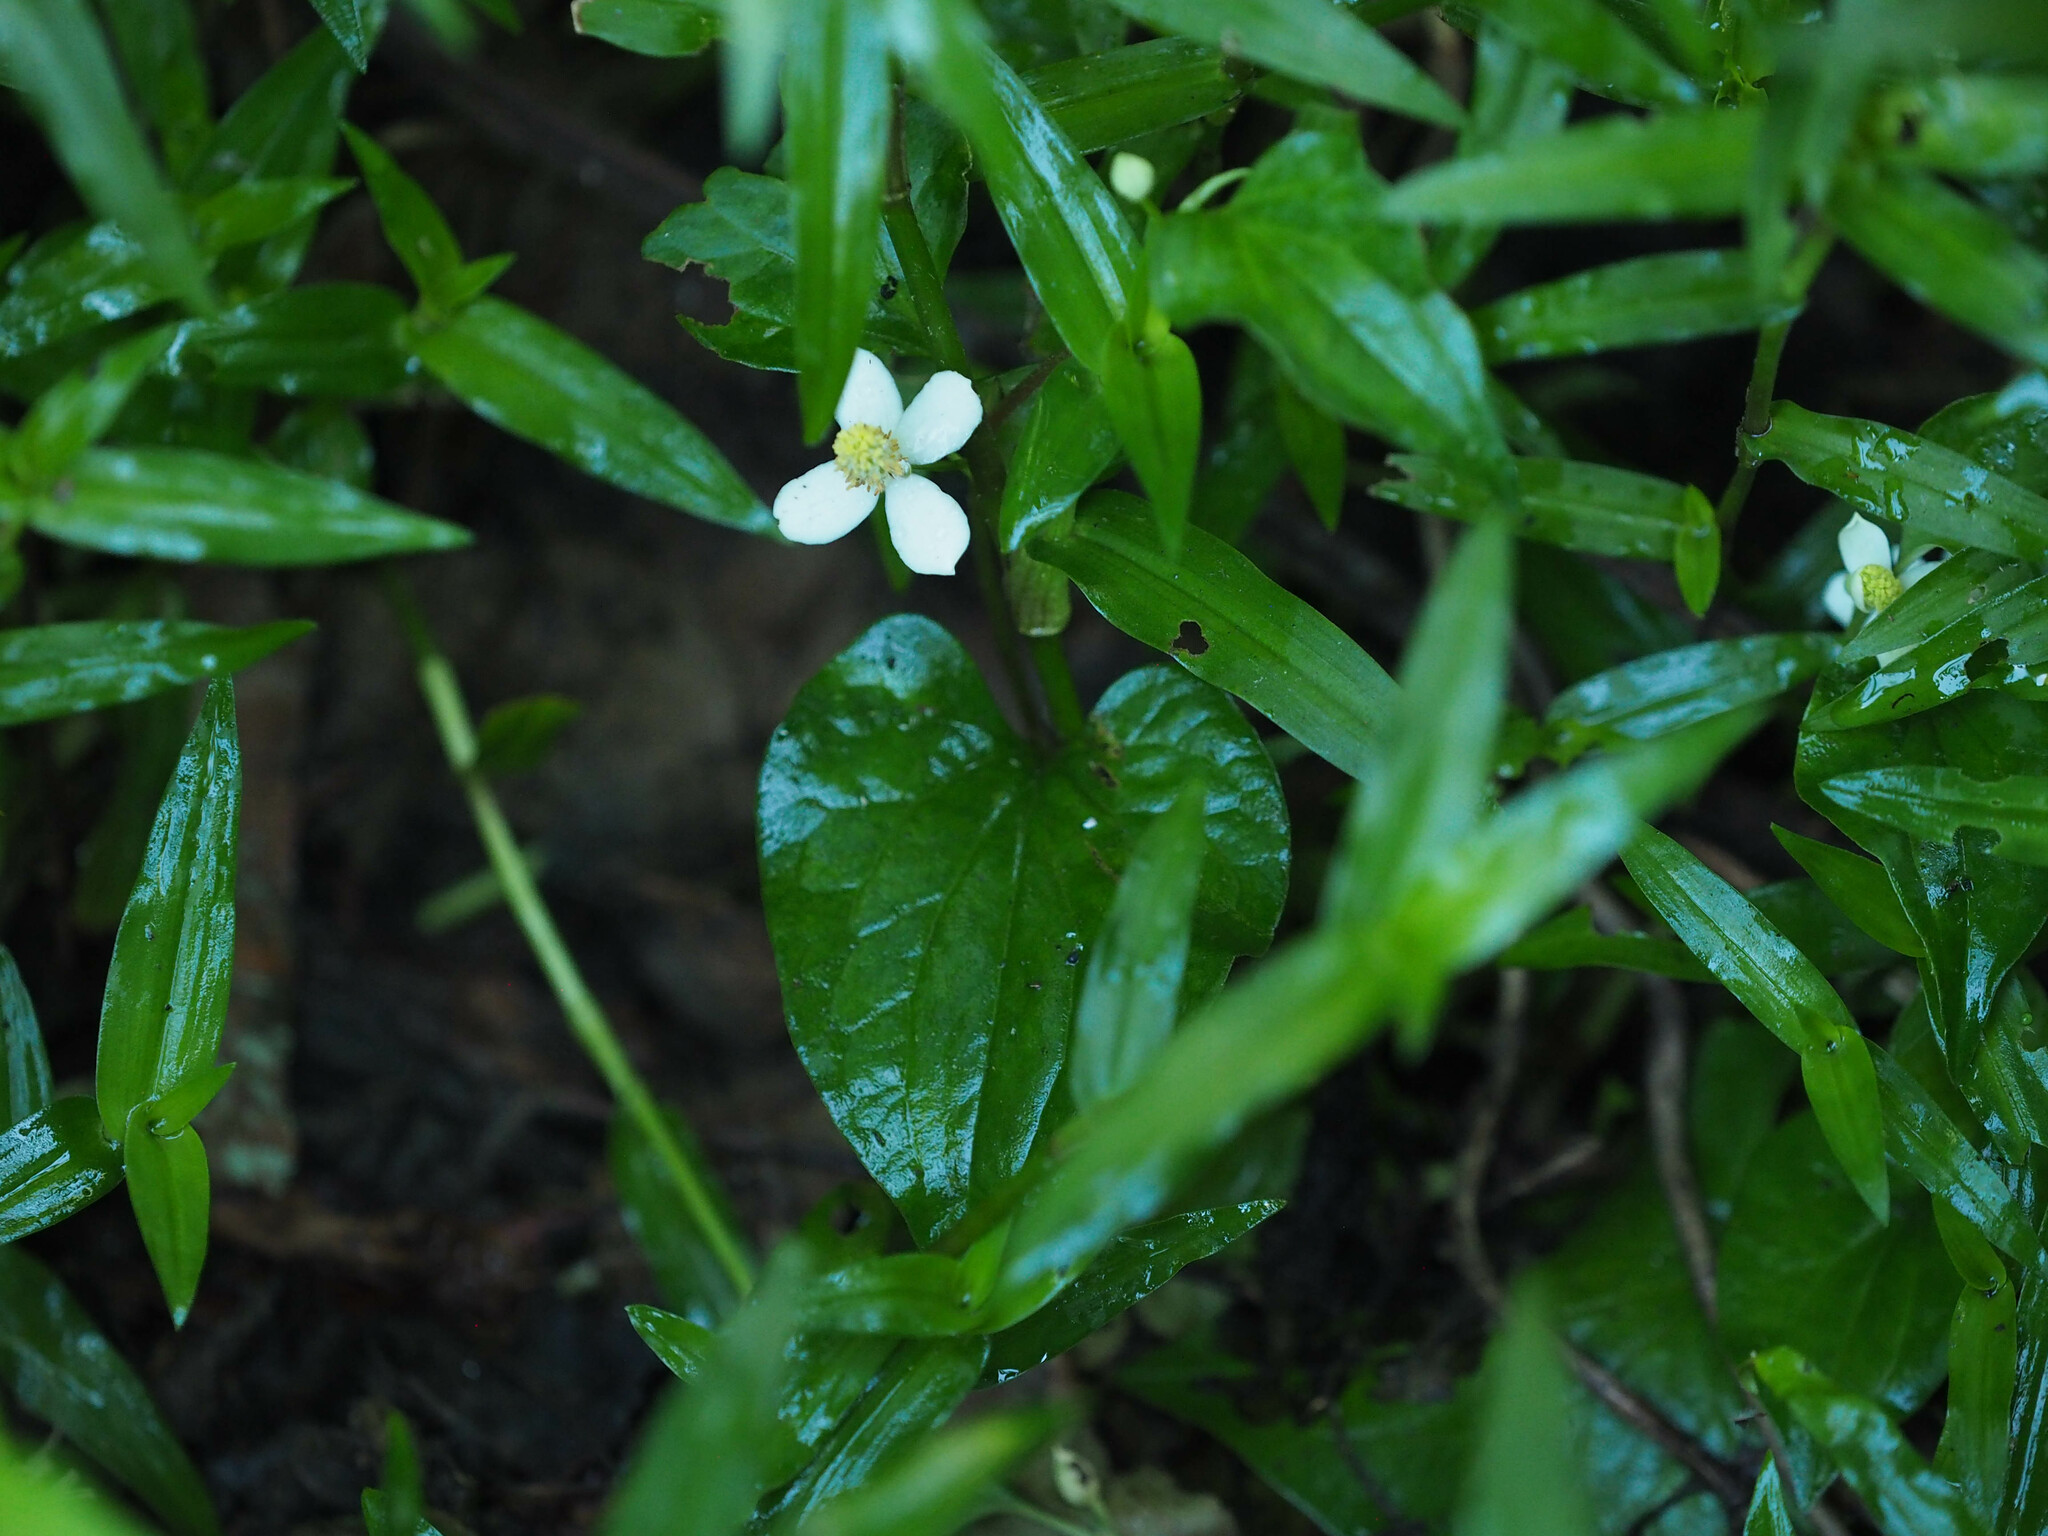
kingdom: Plantae
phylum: Tracheophyta
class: Magnoliopsida
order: Piperales
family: Saururaceae
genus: Houttuynia
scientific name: Houttuynia cordata
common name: Chameleon
